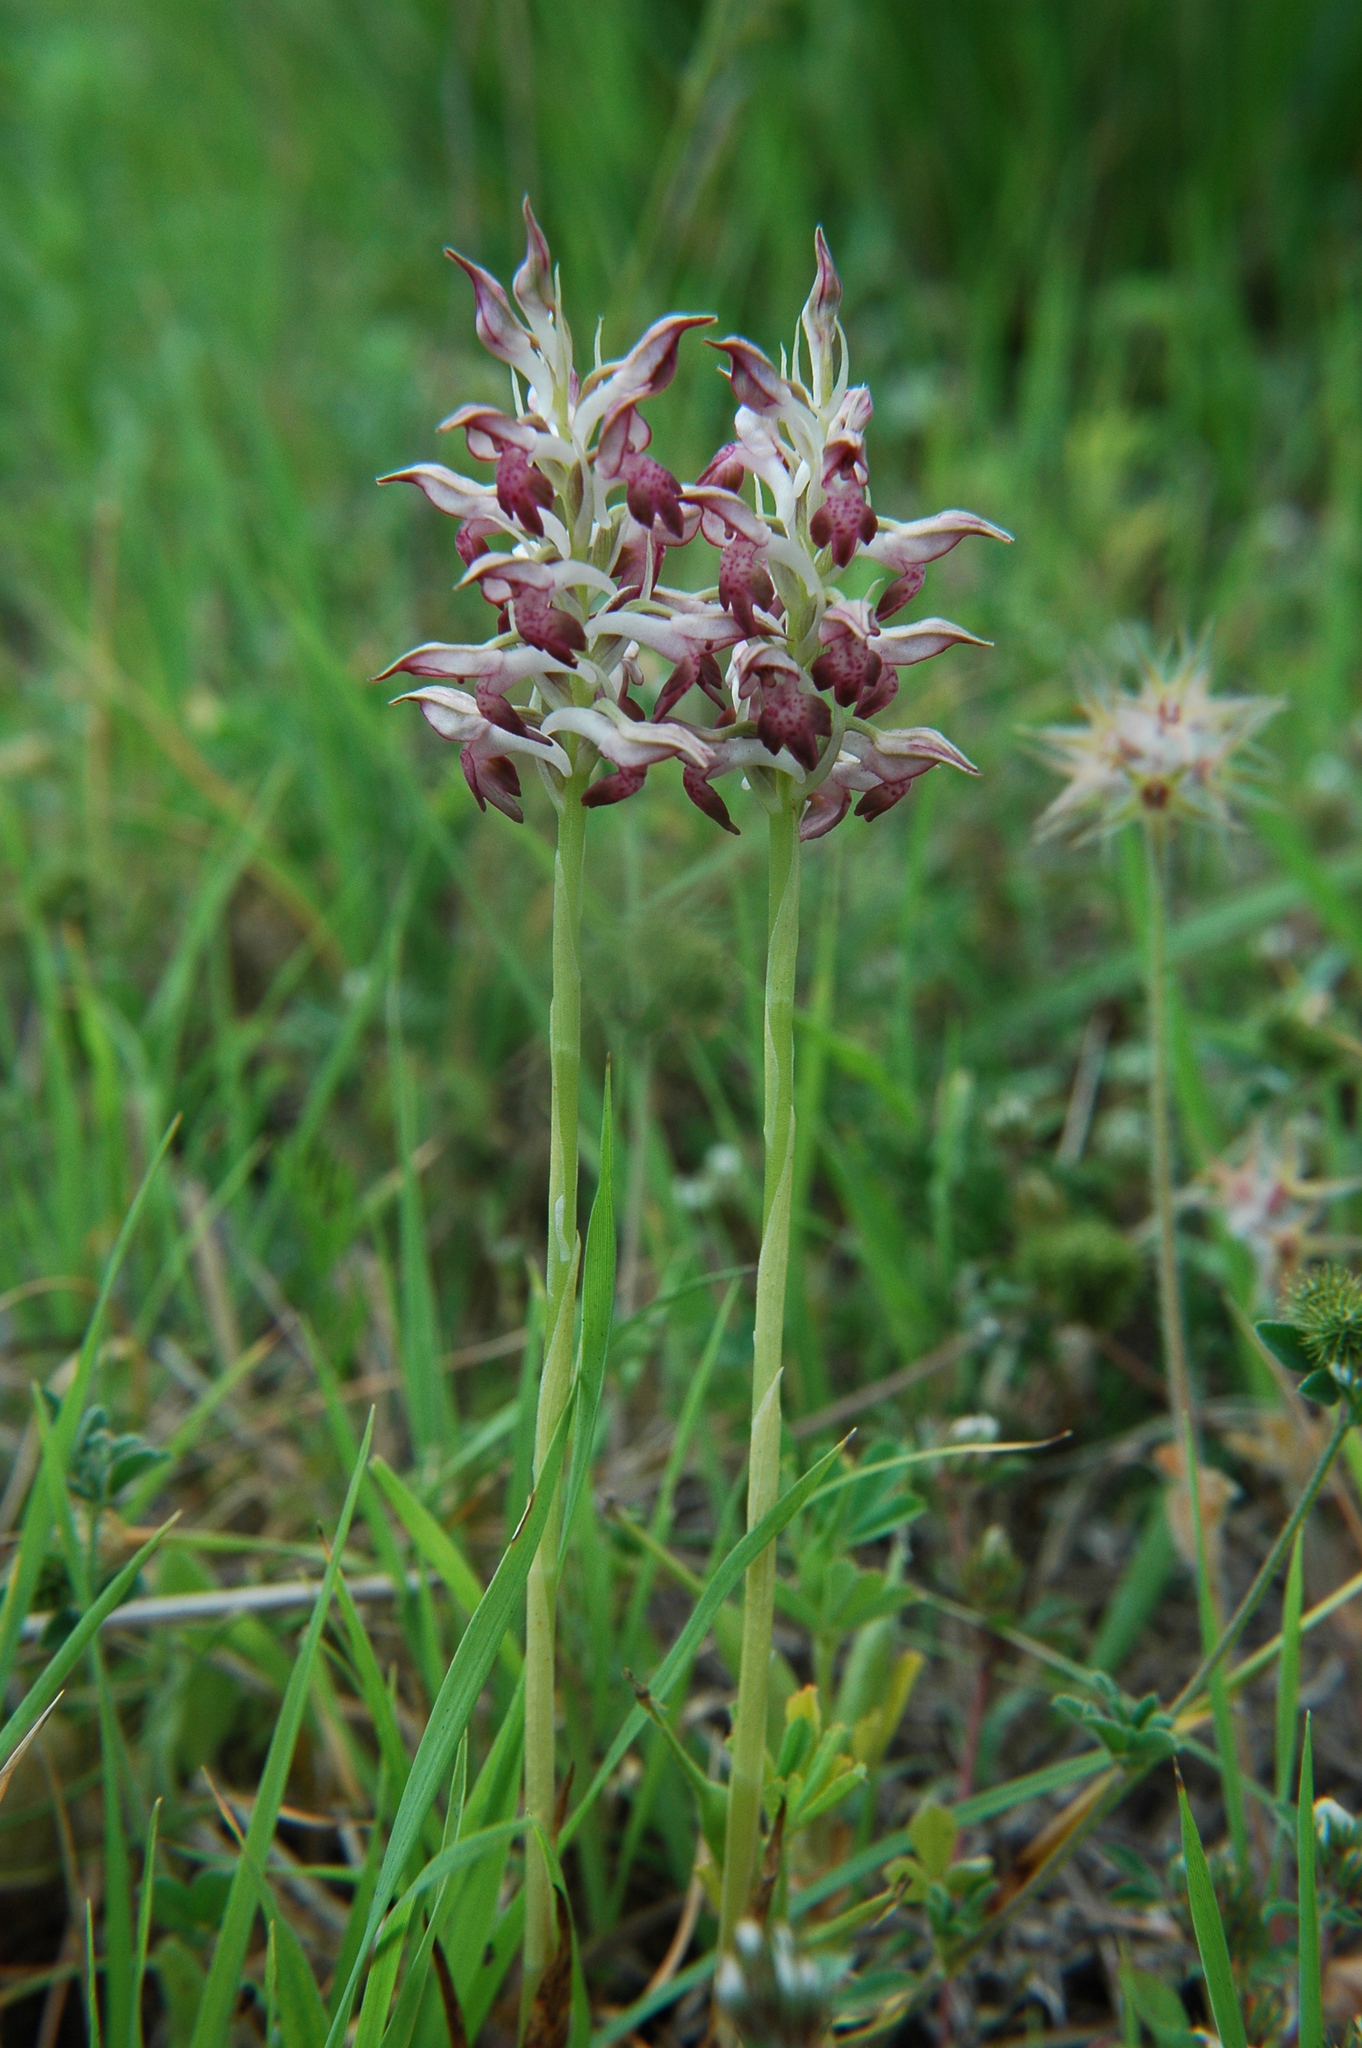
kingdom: Plantae
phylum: Tracheophyta
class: Liliopsida
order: Asparagales
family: Orchidaceae
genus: Anacamptis
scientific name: Anacamptis coriophora
